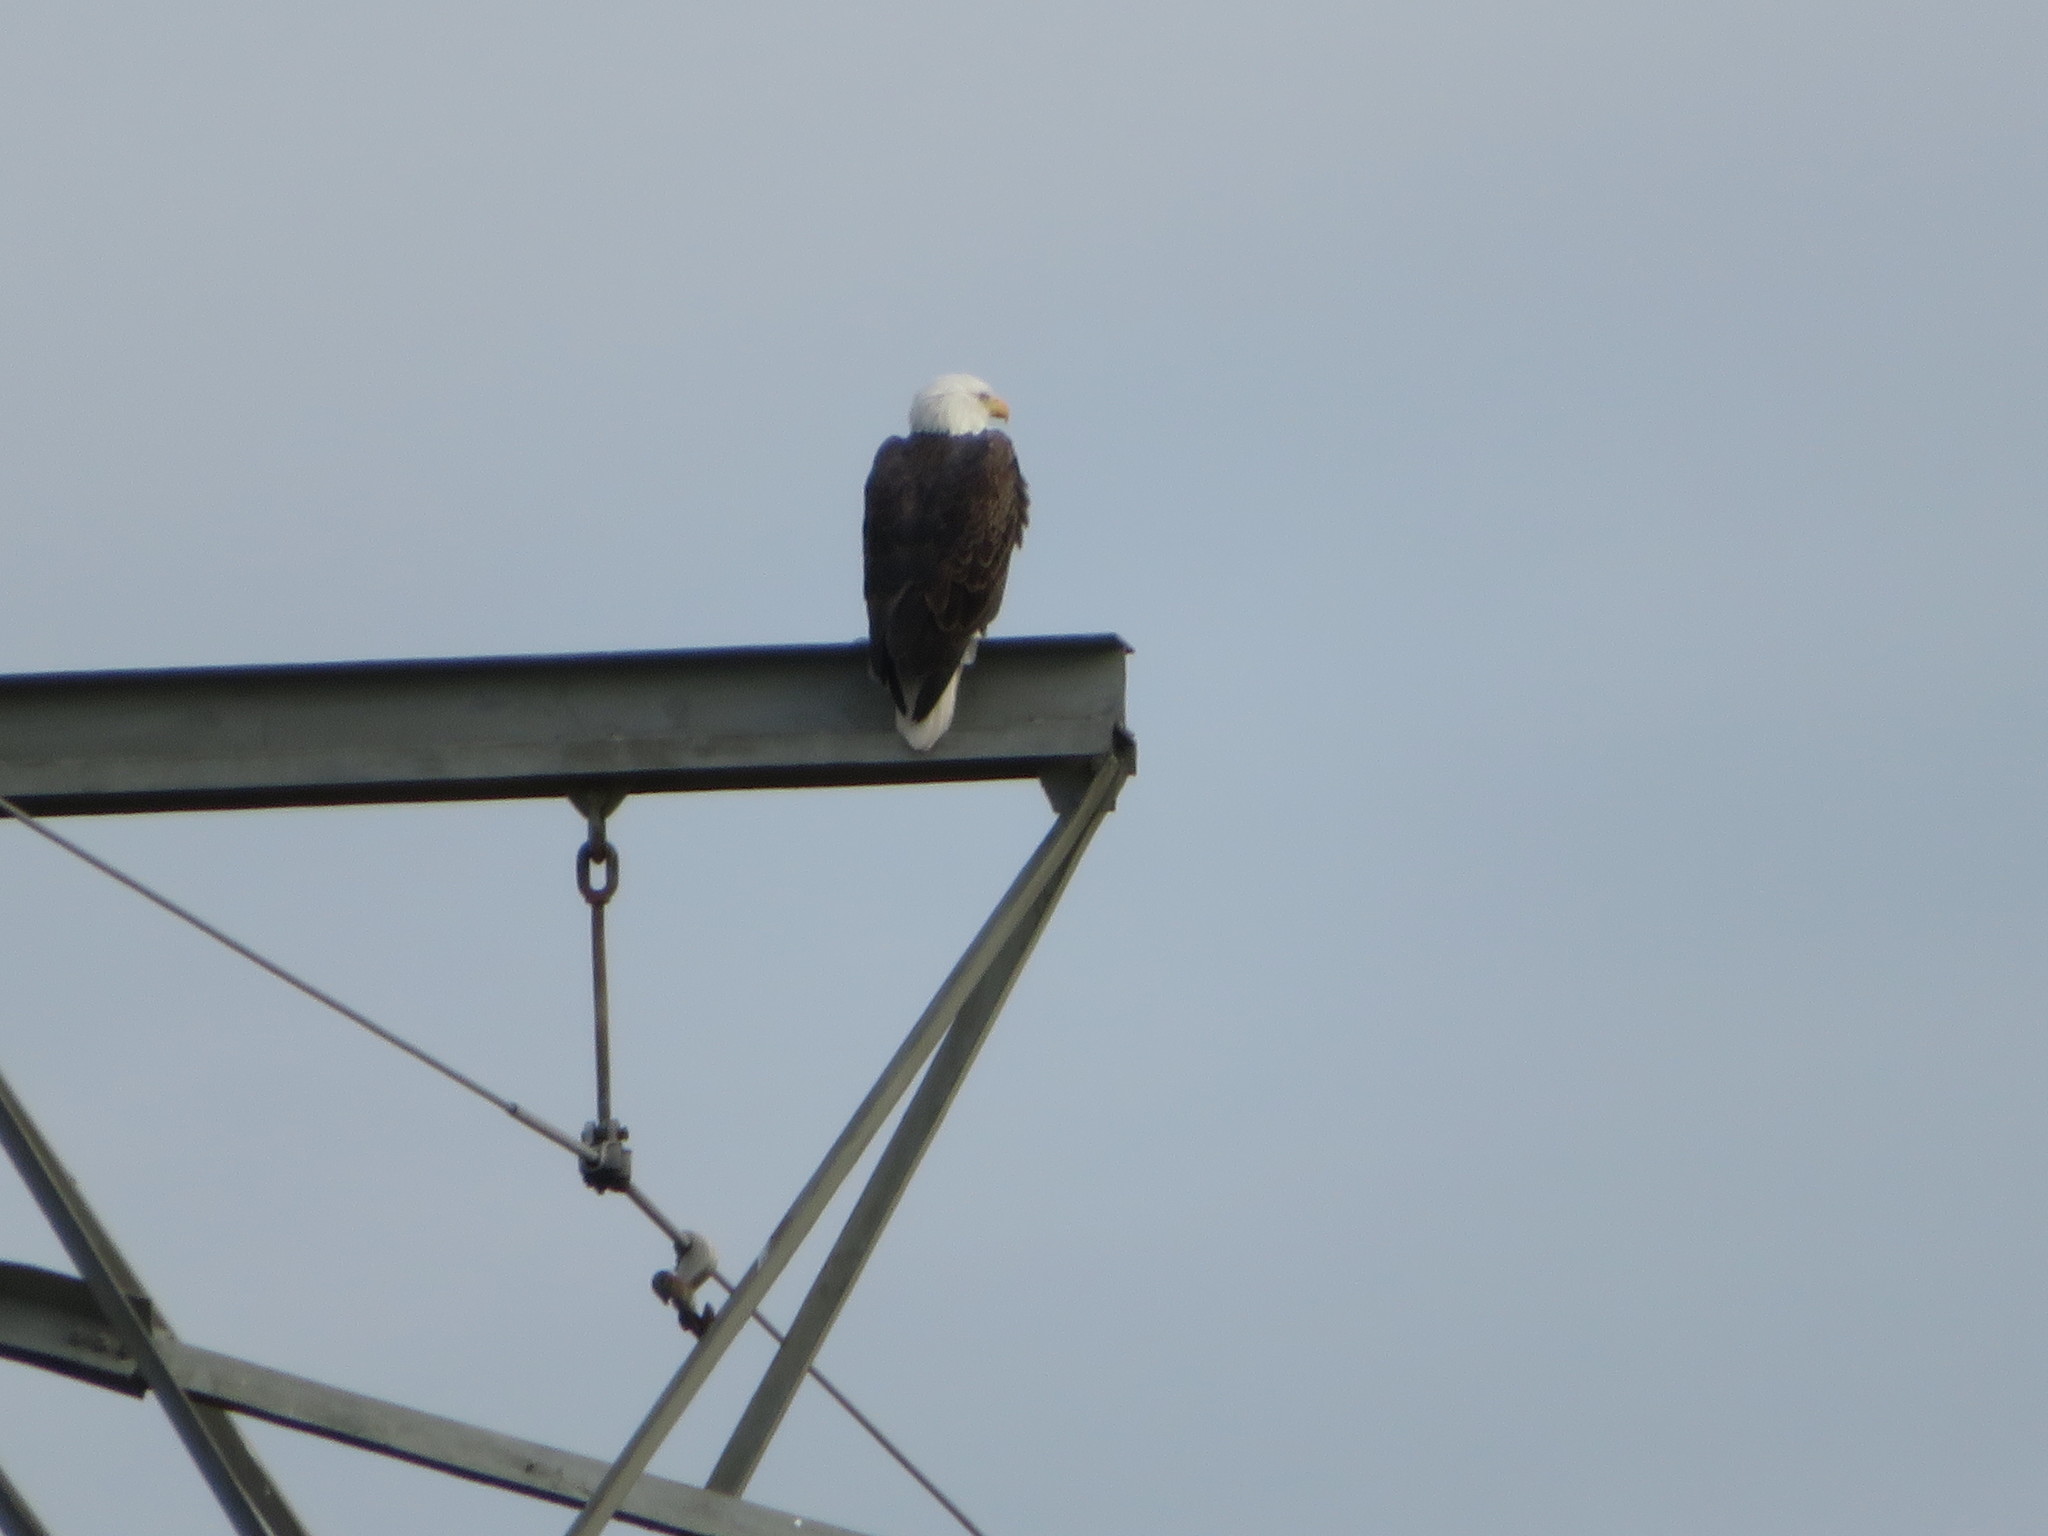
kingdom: Animalia
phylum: Chordata
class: Aves
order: Accipitriformes
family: Accipitridae
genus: Haliaeetus
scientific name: Haliaeetus leucocephalus
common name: Bald eagle
